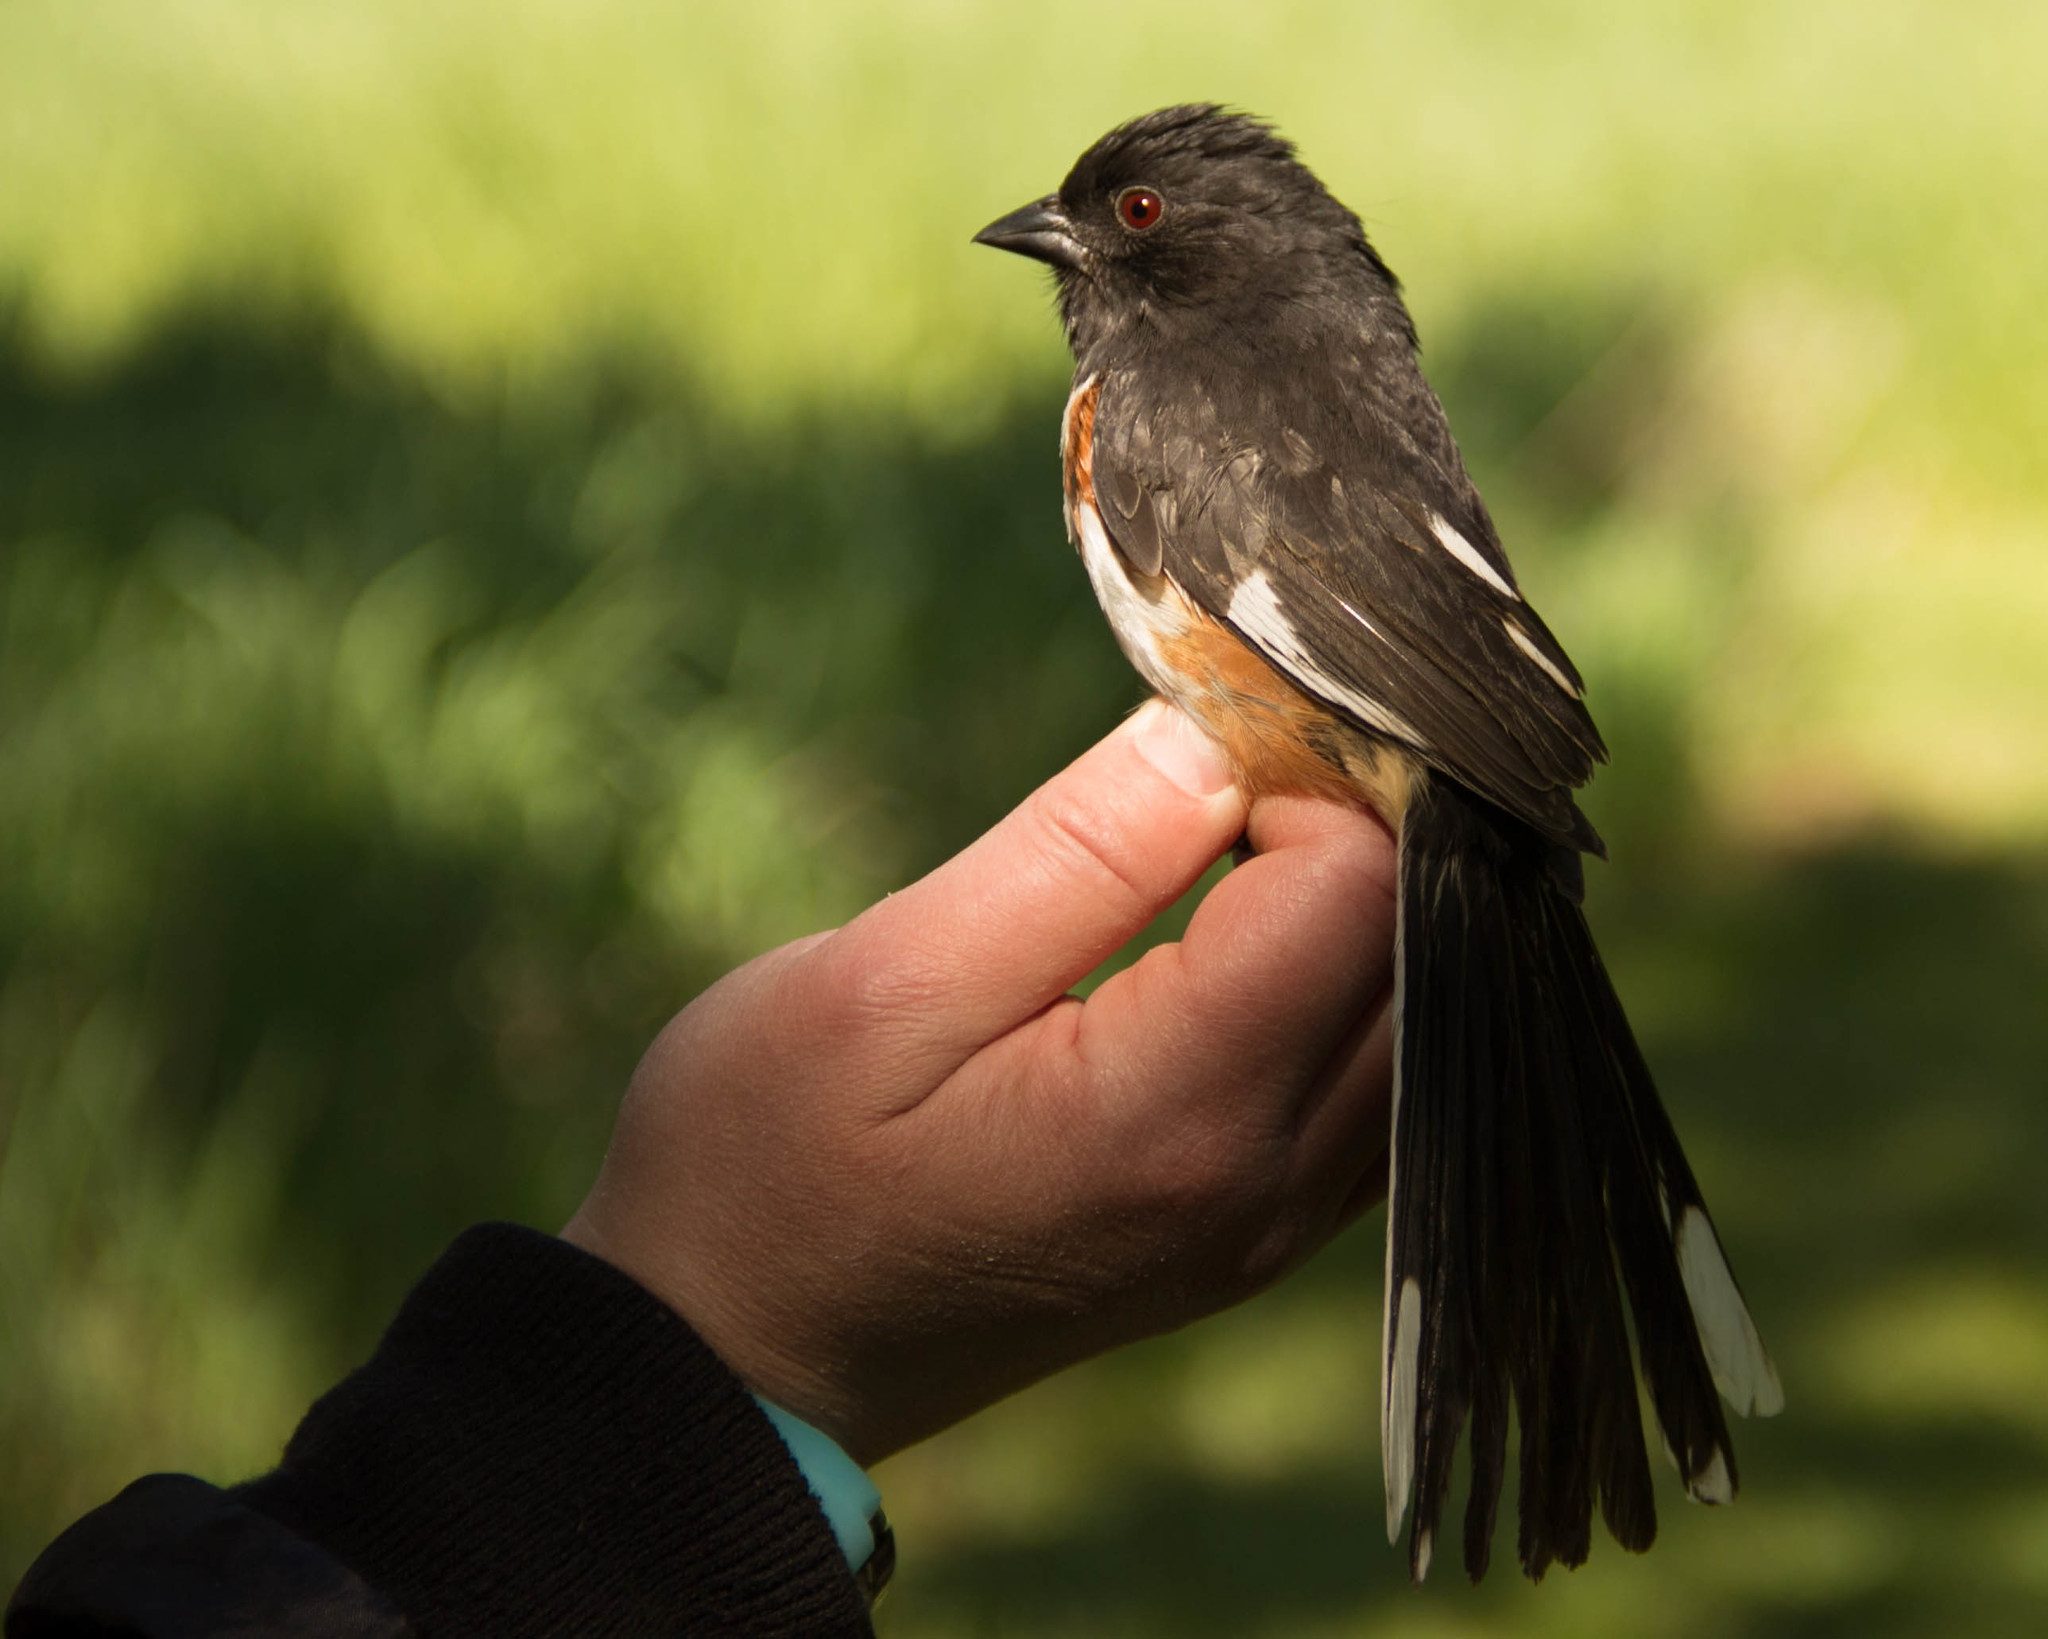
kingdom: Animalia
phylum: Chordata
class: Aves
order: Passeriformes
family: Passerellidae
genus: Pipilo
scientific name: Pipilo erythrophthalmus
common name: Eastern towhee
